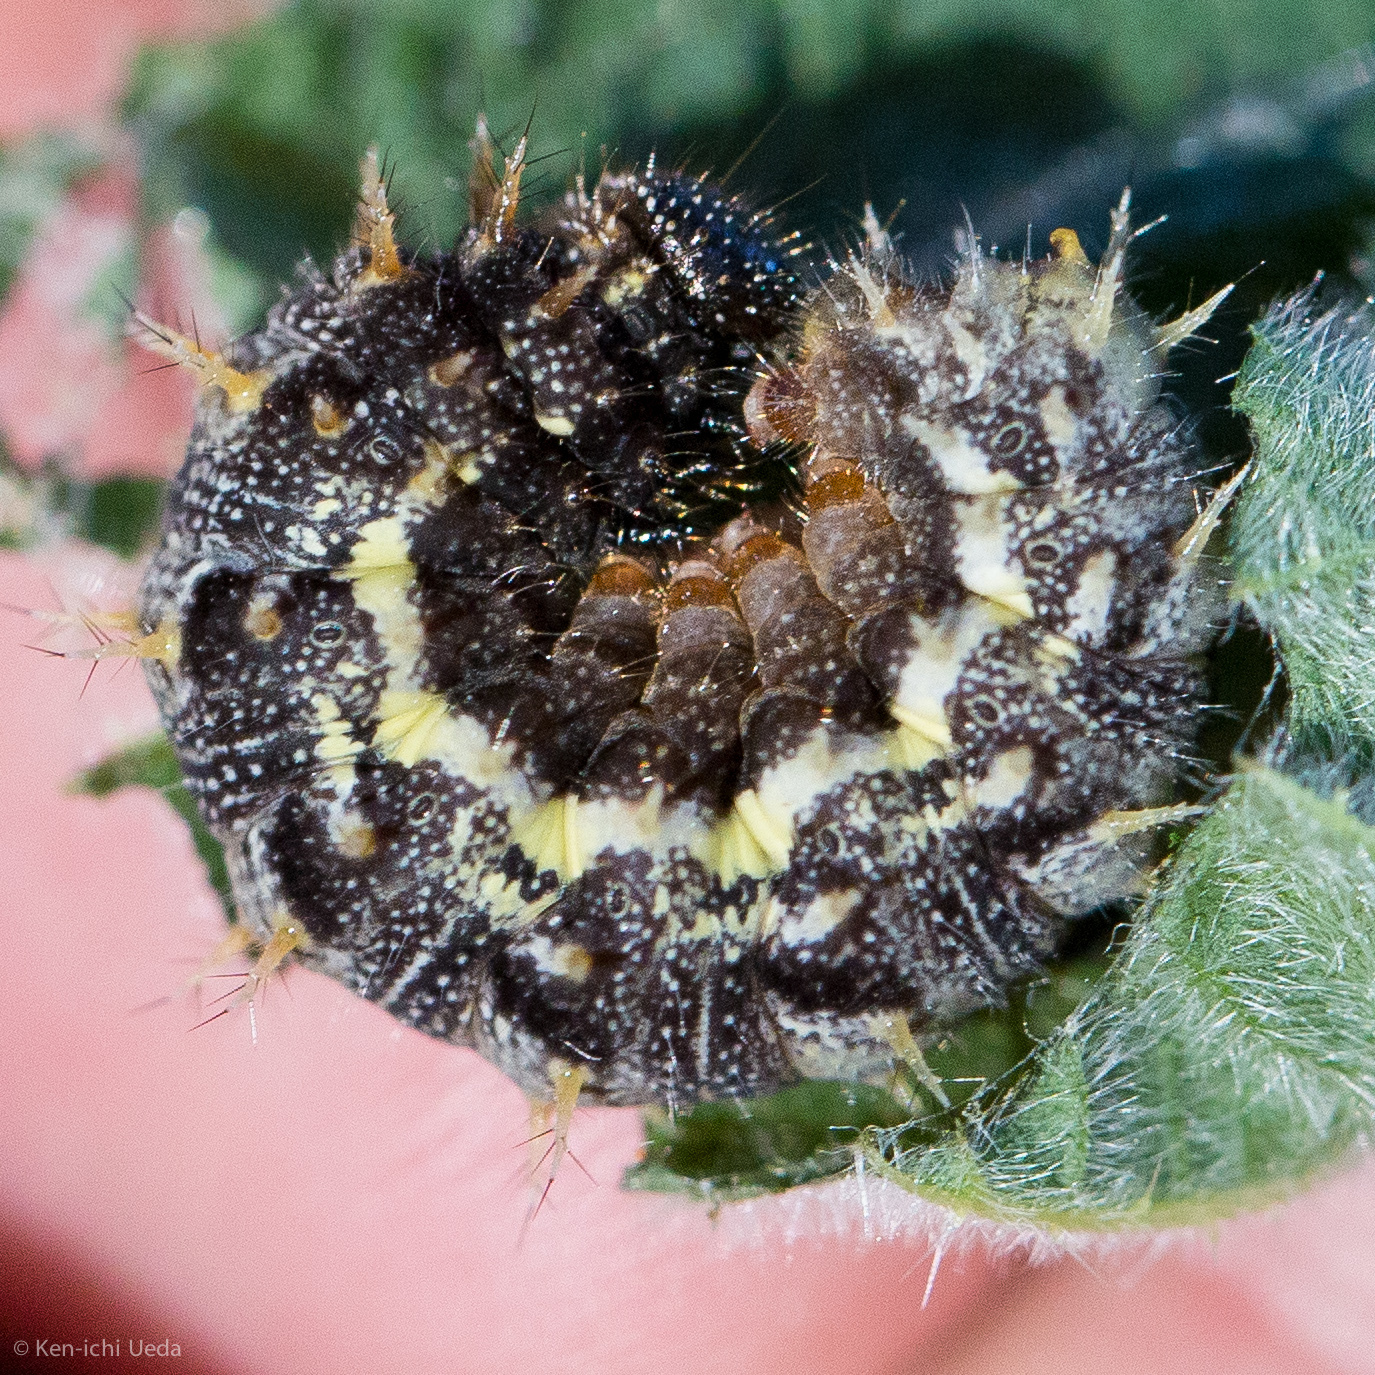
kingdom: Animalia
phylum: Arthropoda
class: Insecta
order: Lepidoptera
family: Nymphalidae
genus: Vanessa
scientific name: Vanessa atalanta
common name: Red admiral
